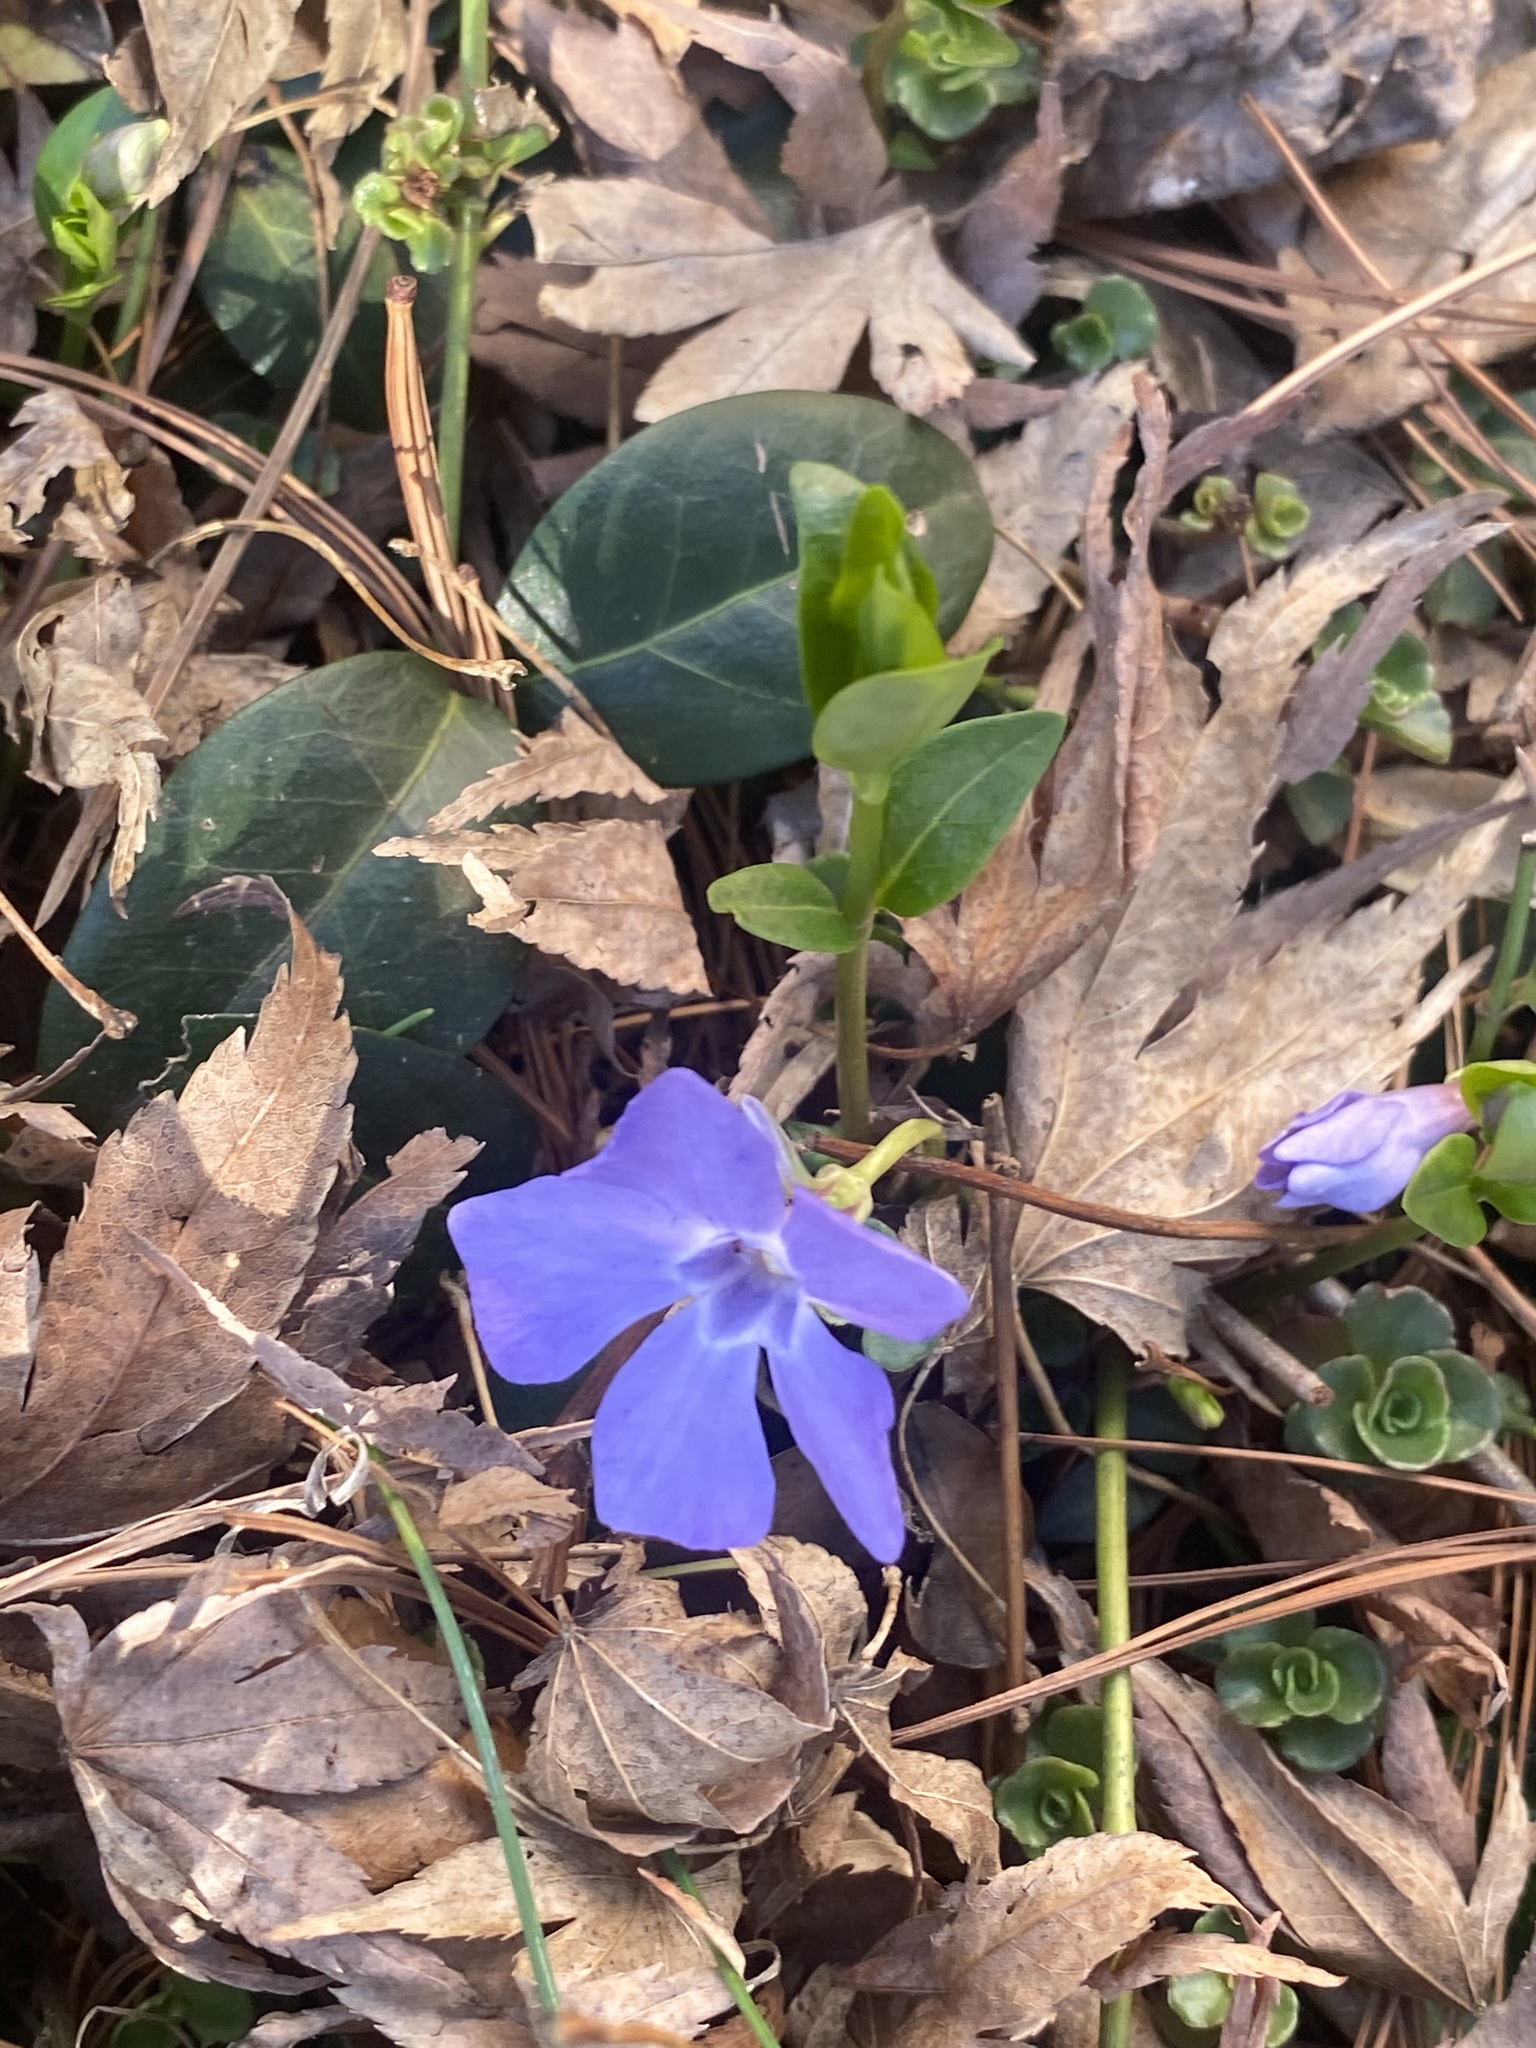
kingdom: Plantae
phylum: Tracheophyta
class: Magnoliopsida
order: Gentianales
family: Apocynaceae
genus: Vinca
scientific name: Vinca minor
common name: Lesser periwinkle
